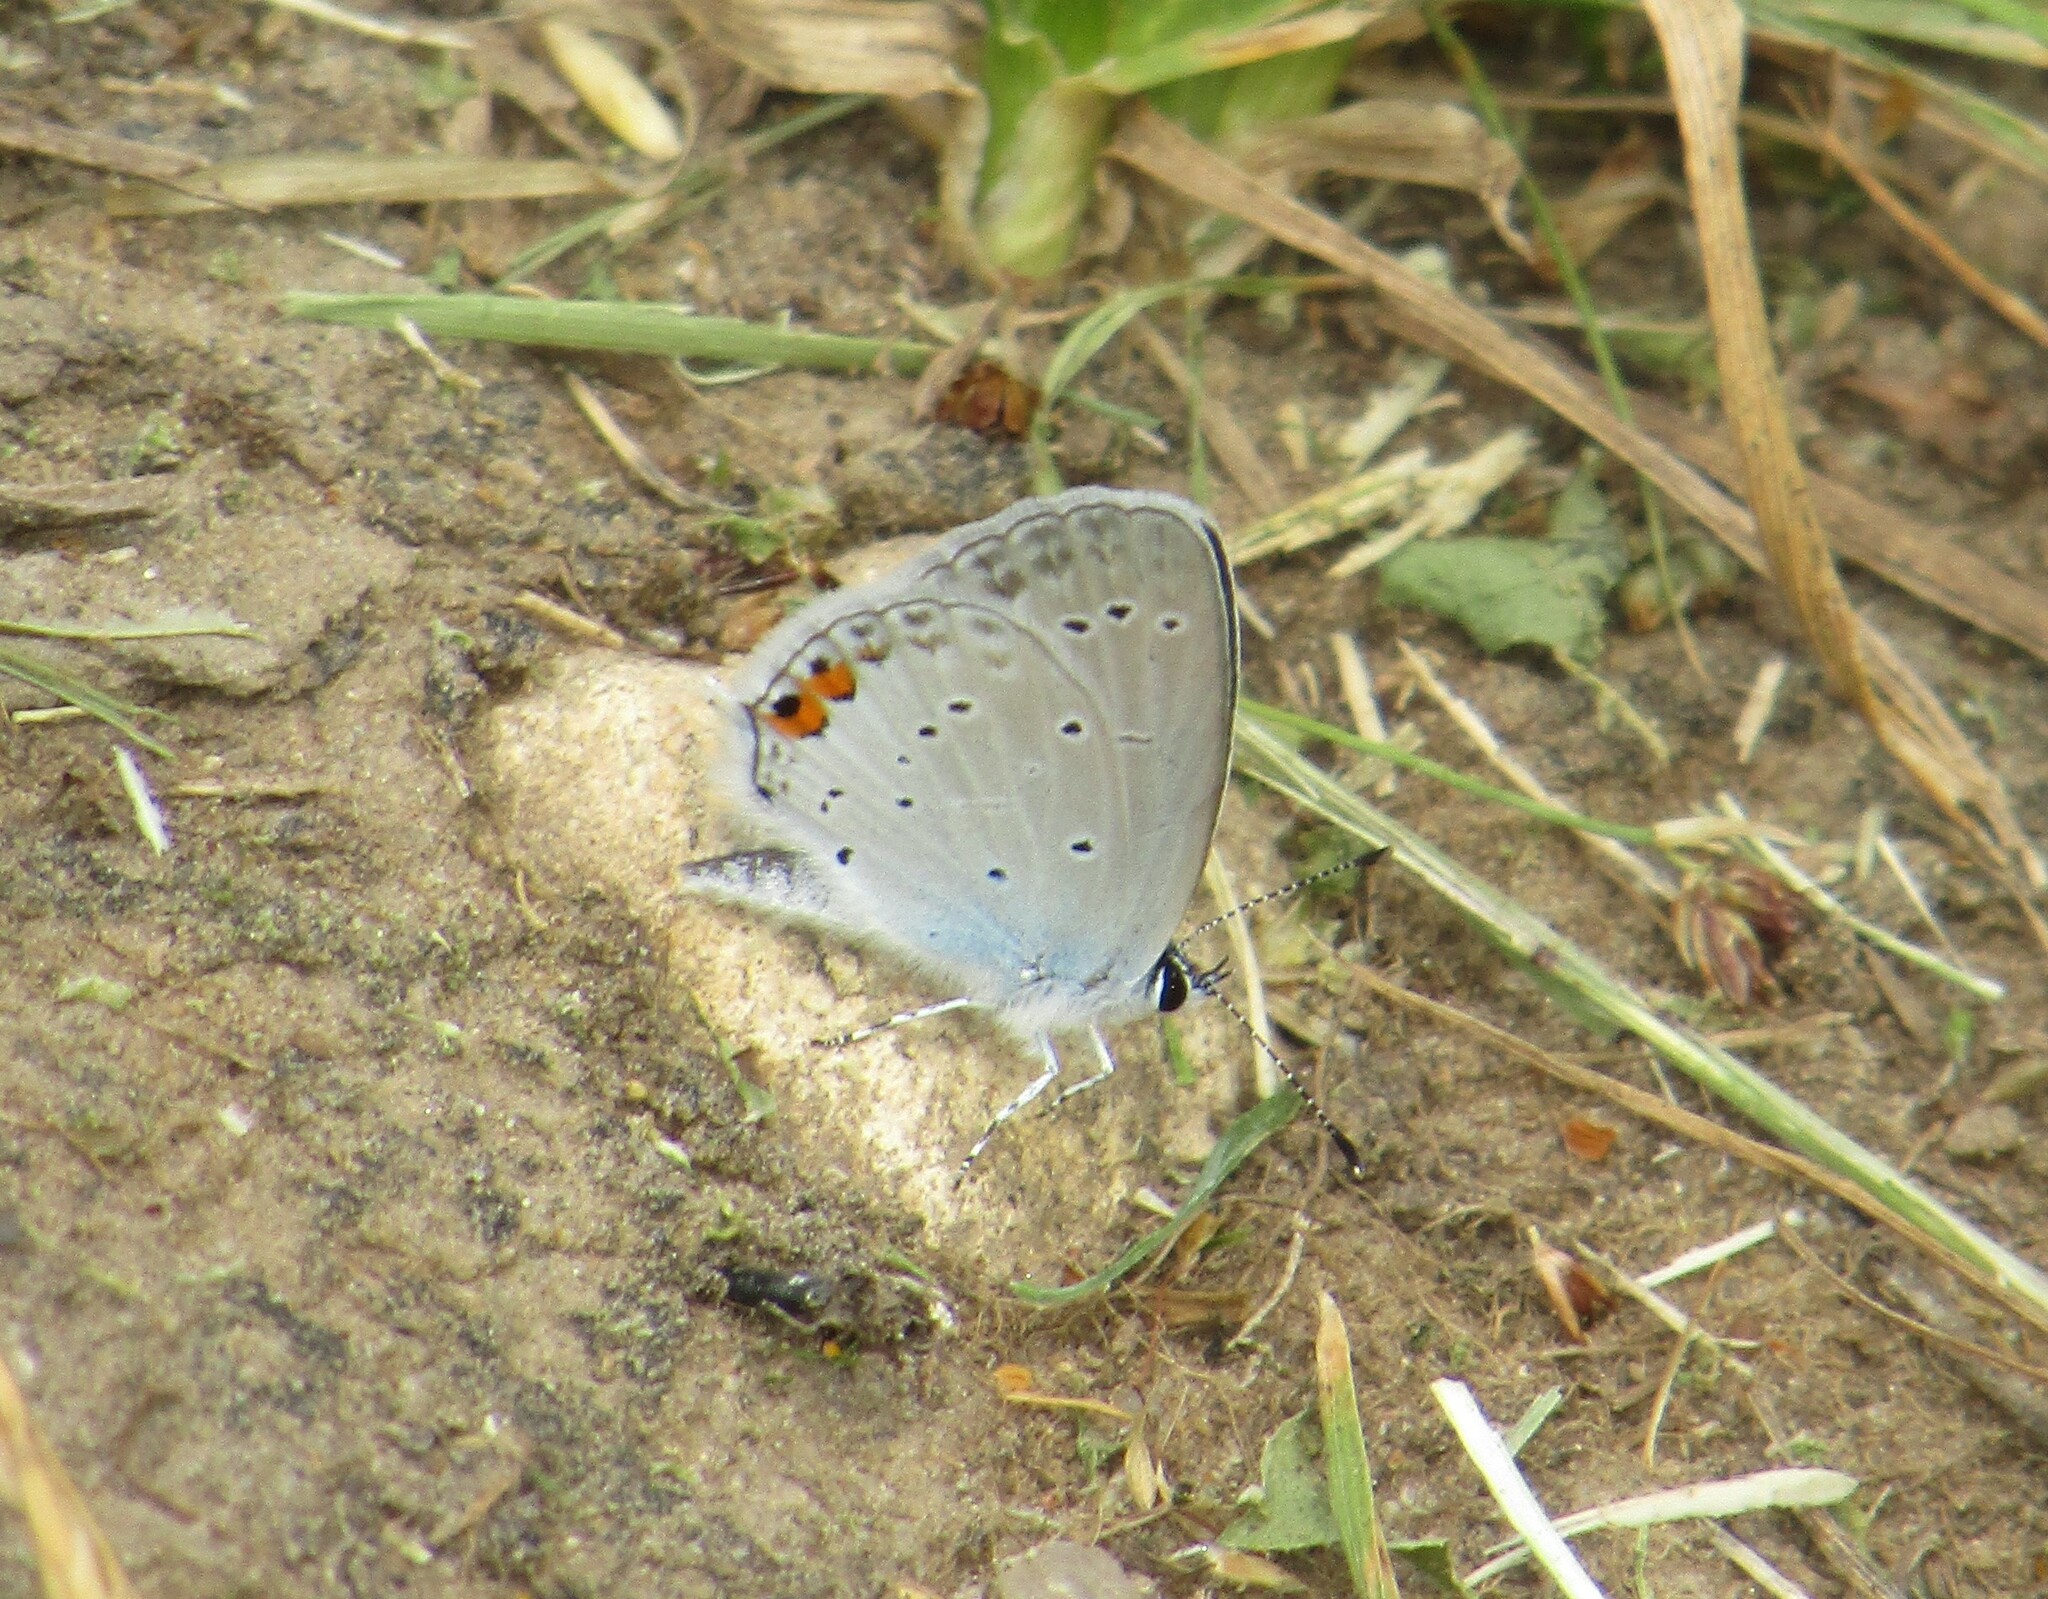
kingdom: Animalia
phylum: Arthropoda
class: Insecta
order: Lepidoptera
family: Lycaenidae
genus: Elkalyce
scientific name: Elkalyce argiades
